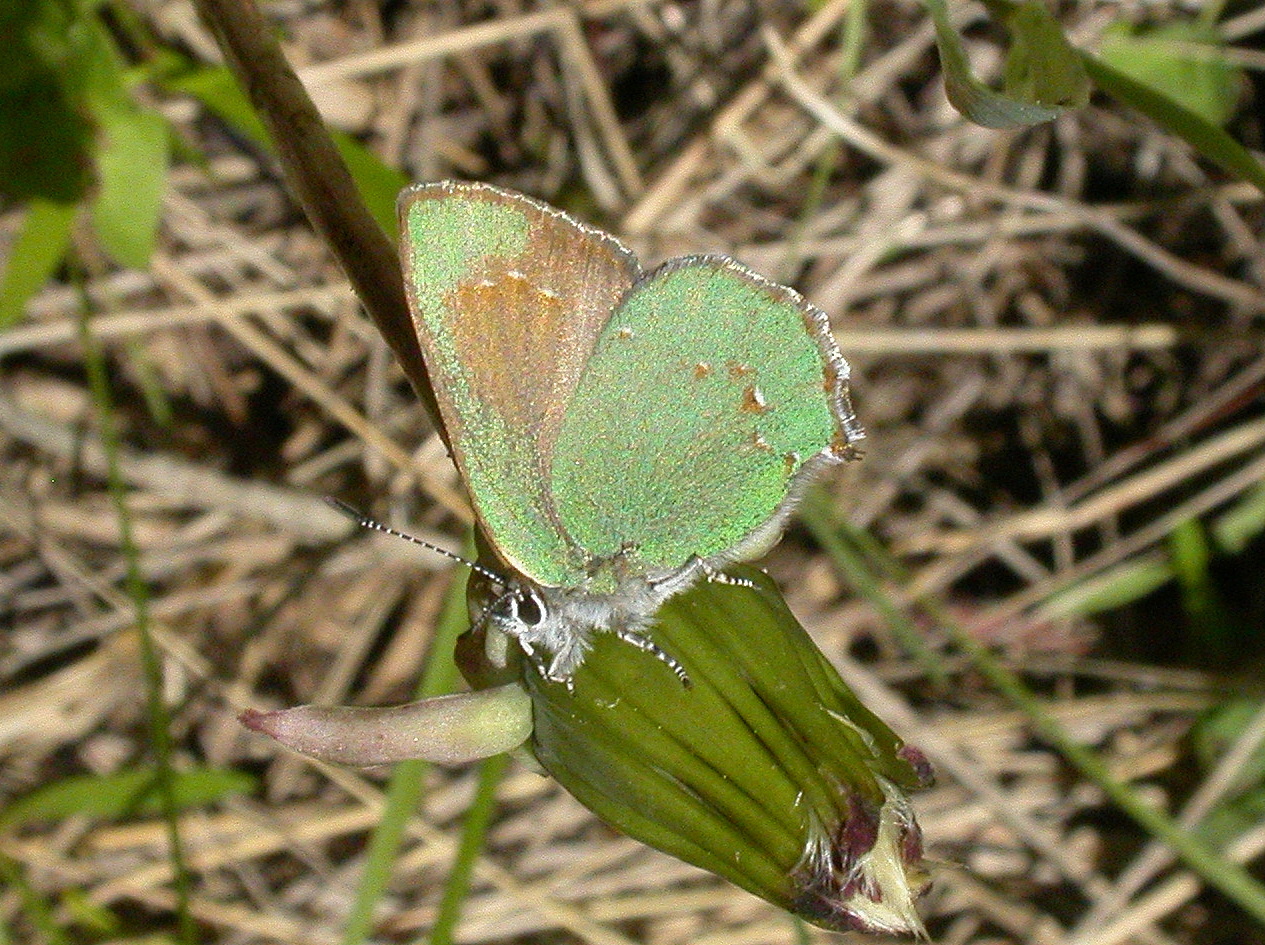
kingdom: Animalia
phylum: Arthropoda
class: Insecta
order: Lepidoptera
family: Lycaenidae
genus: Callophrys
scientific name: Callophrys affinis
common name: Western green hairstreak
